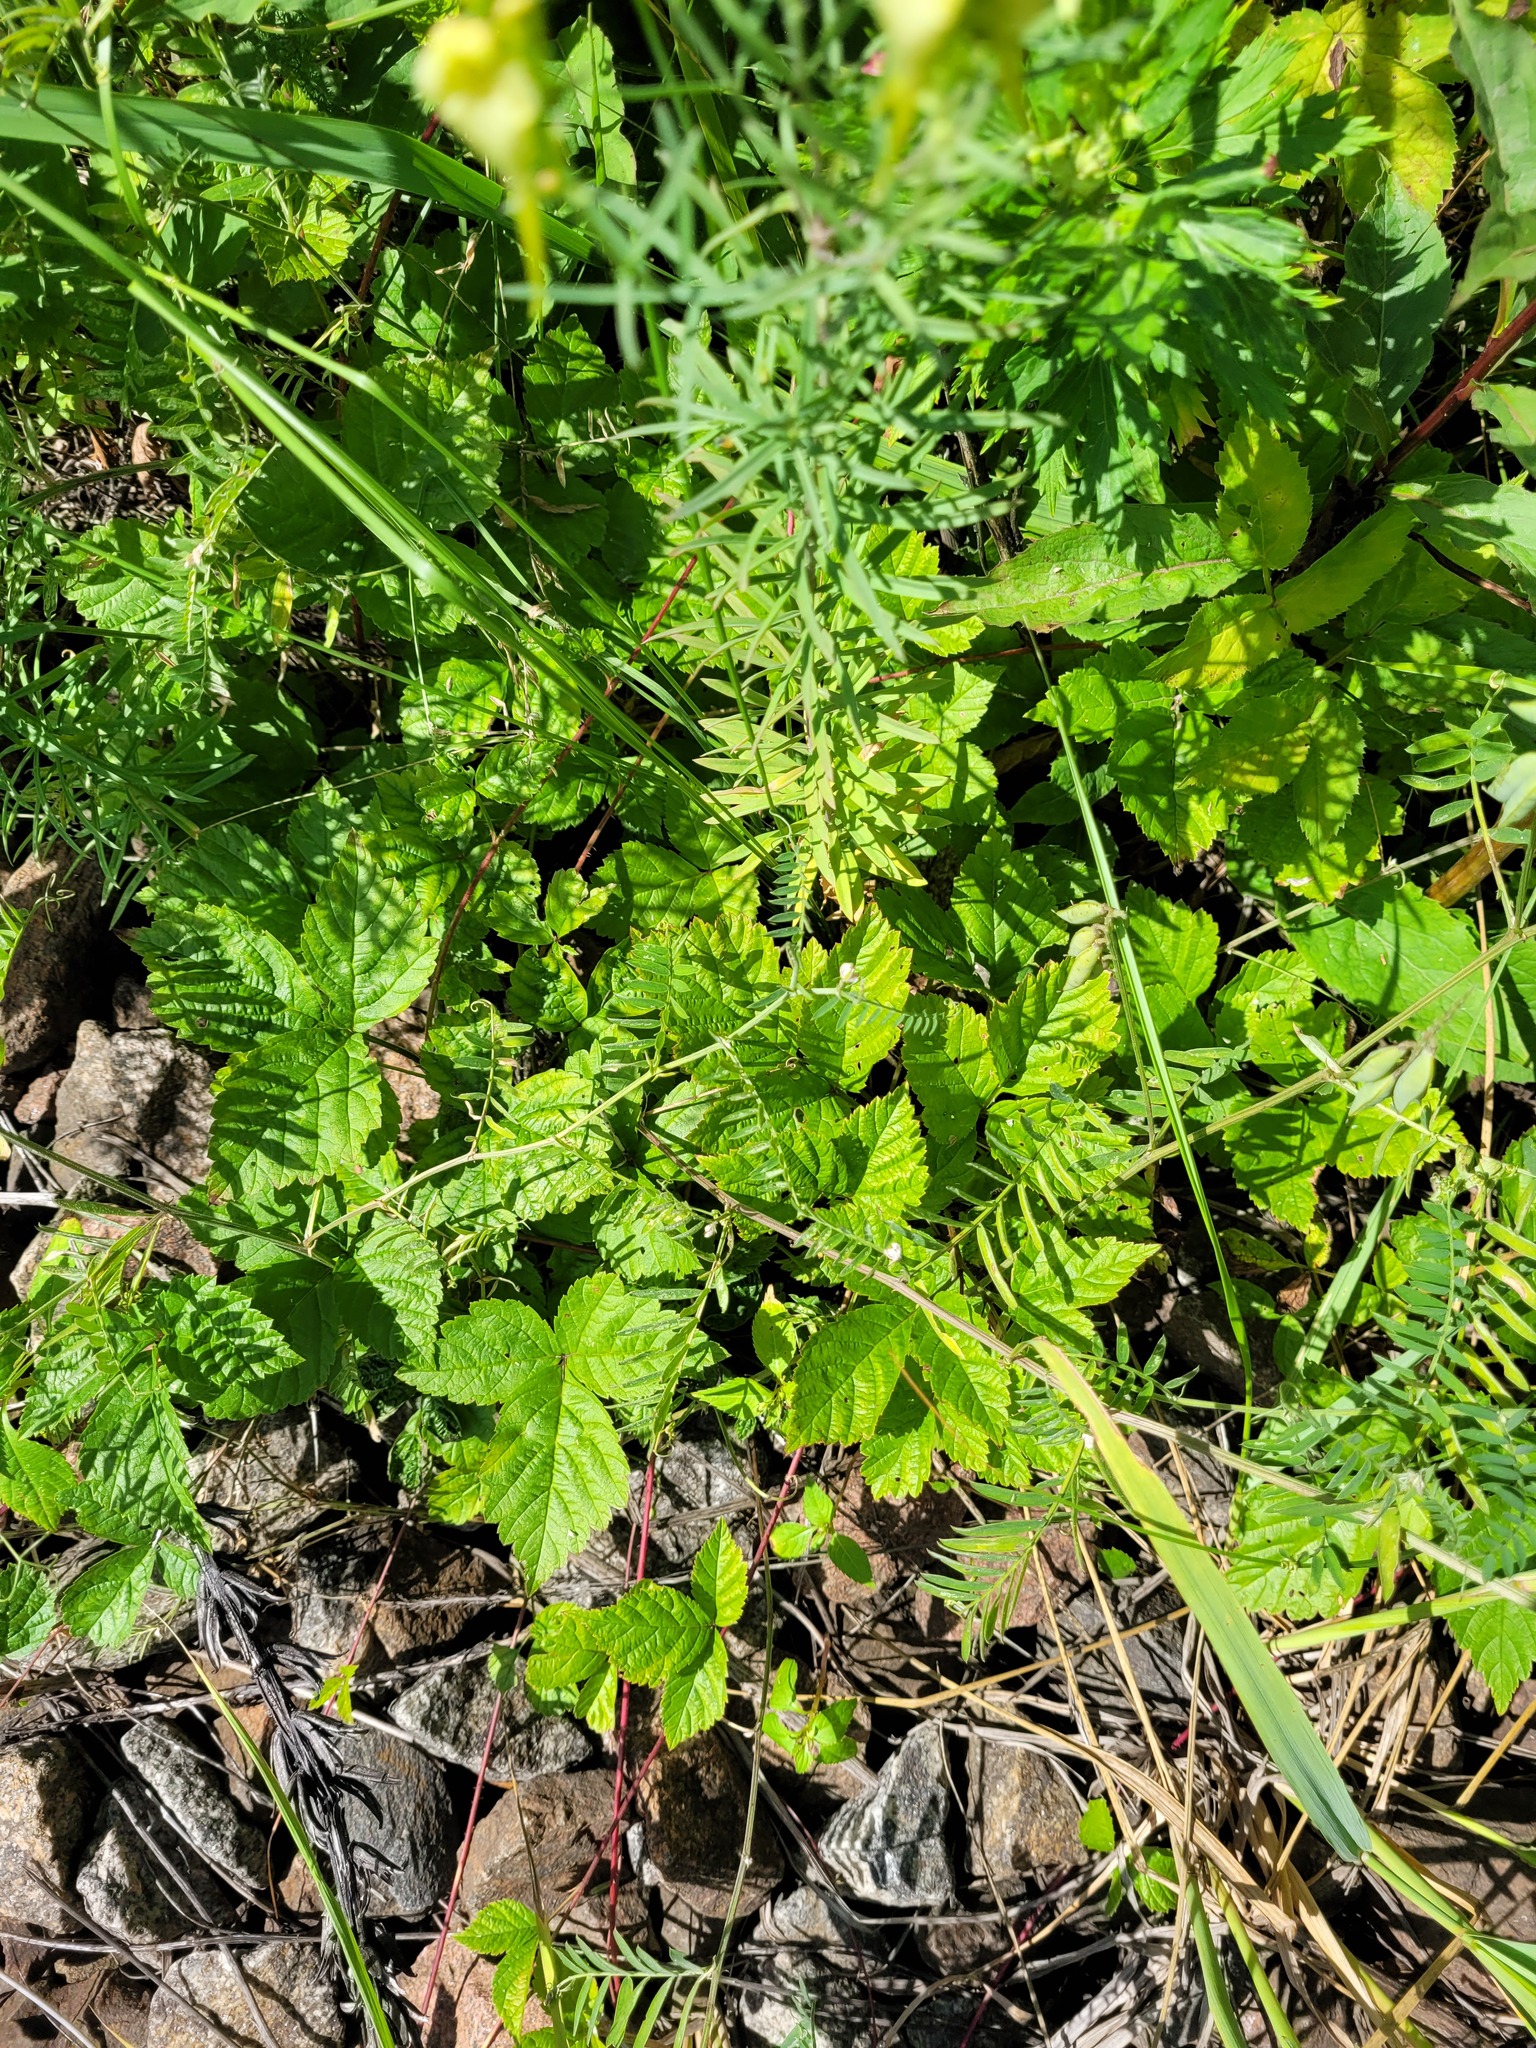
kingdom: Plantae
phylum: Tracheophyta
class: Magnoliopsida
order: Fabales
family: Fabaceae
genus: Vicia
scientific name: Vicia cracca
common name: Bird vetch
